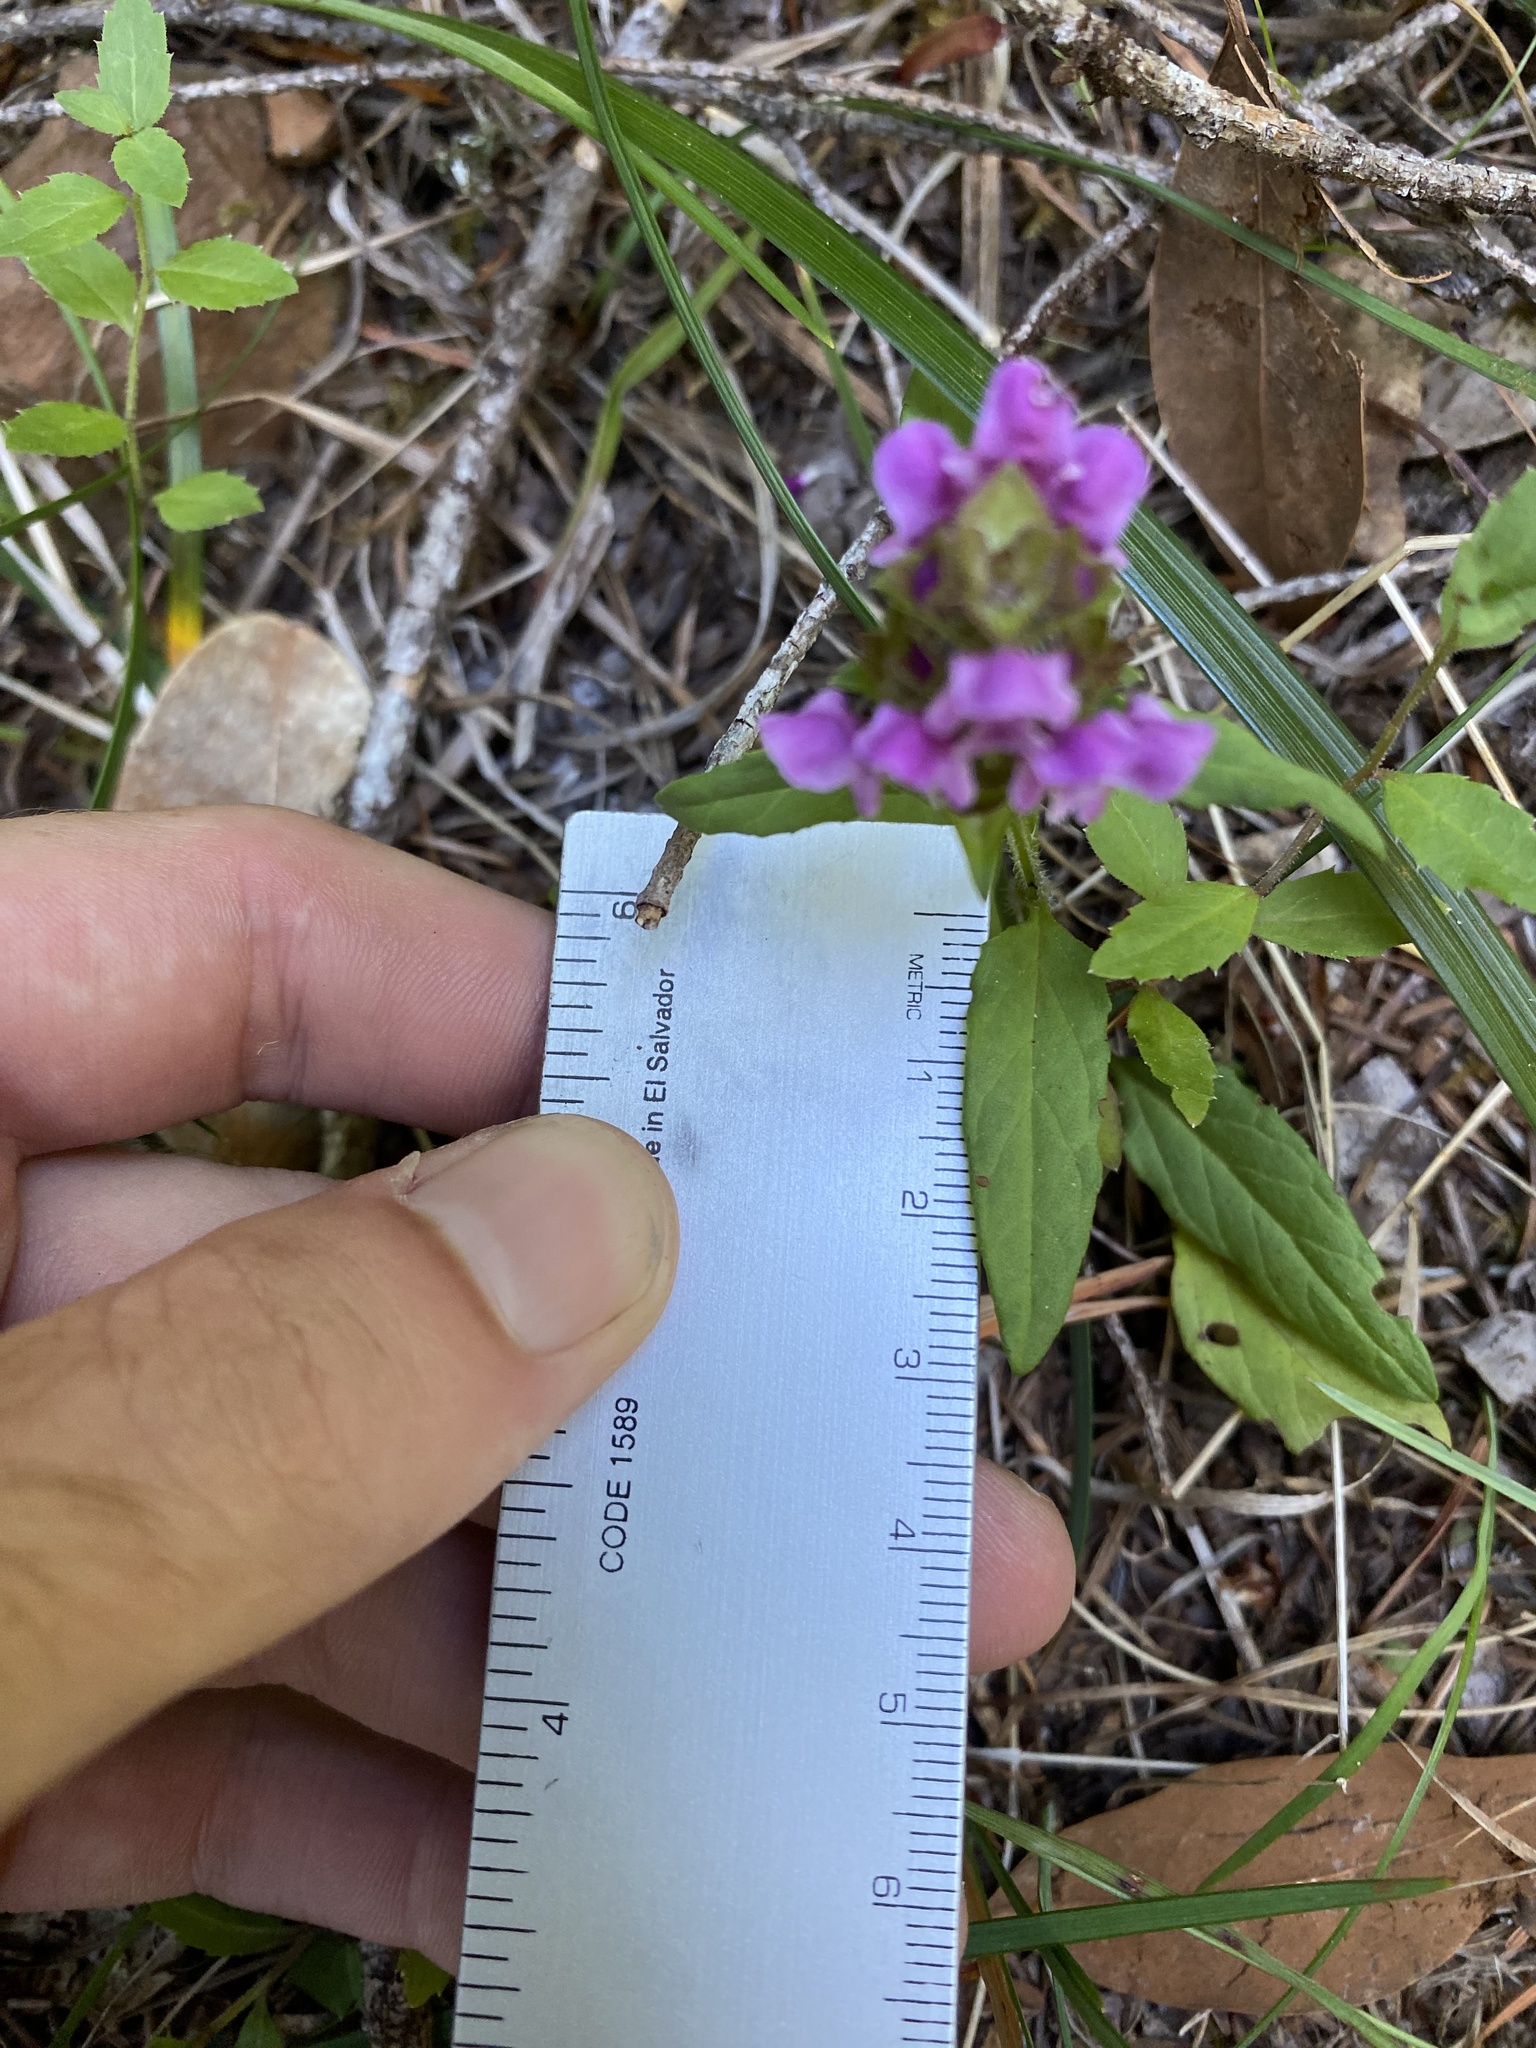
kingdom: Plantae
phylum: Tracheophyta
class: Magnoliopsida
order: Lamiales
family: Lamiaceae
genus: Prunella
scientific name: Prunella vulgaris
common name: Heal-all
